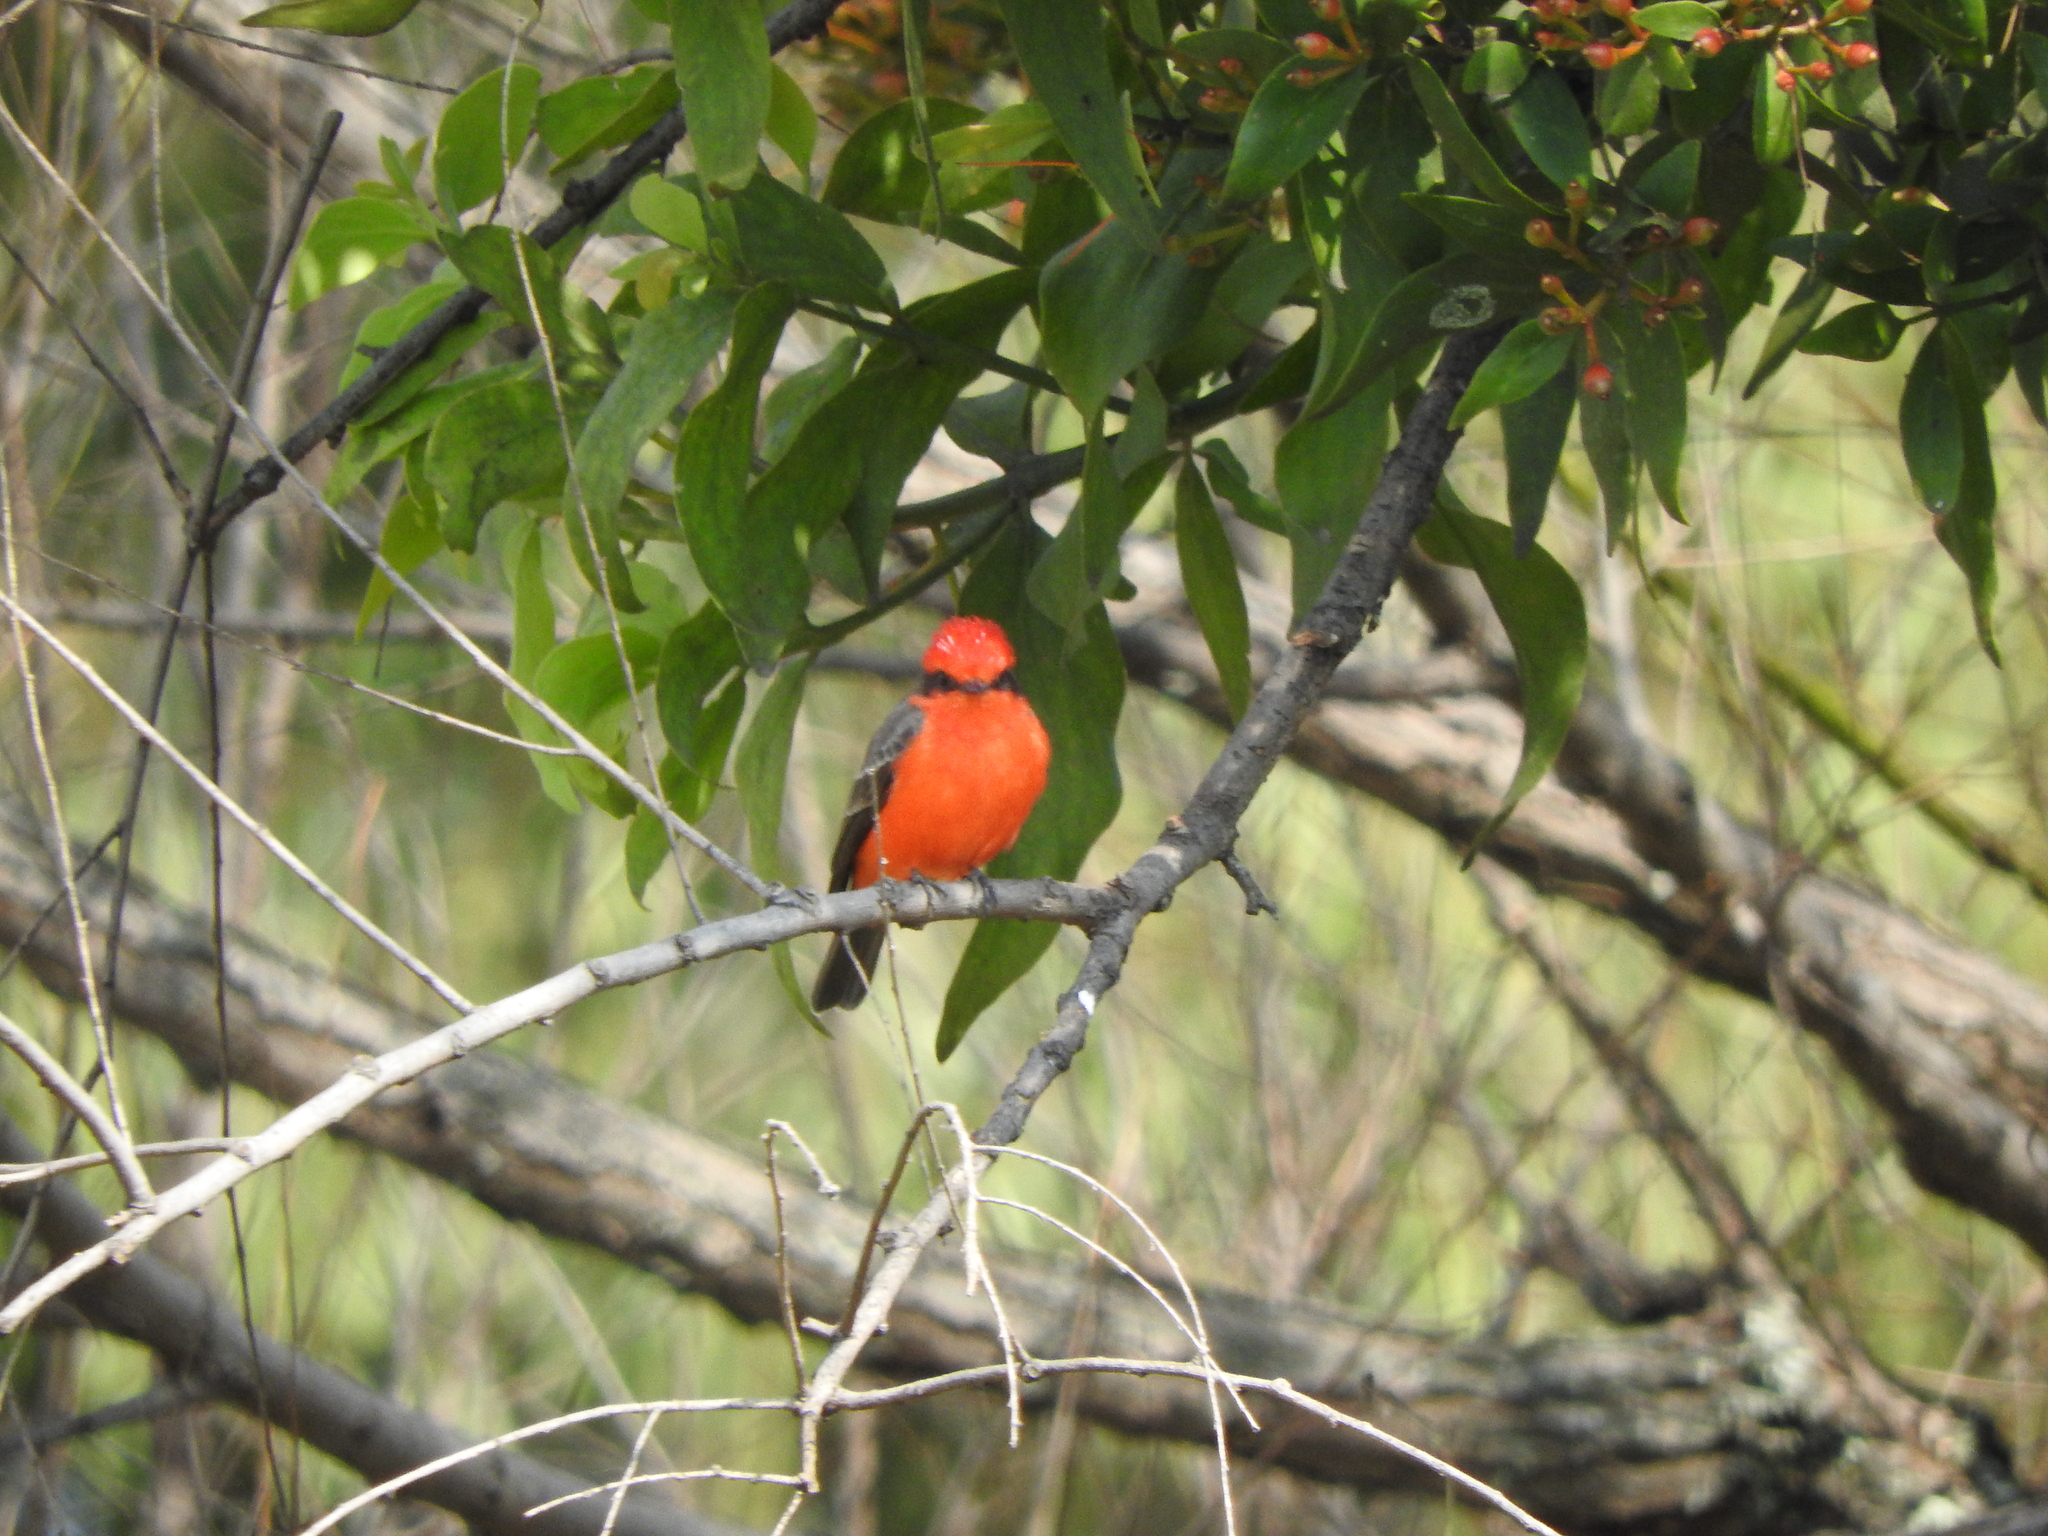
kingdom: Animalia
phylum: Chordata
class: Aves
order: Passeriformes
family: Tyrannidae
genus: Pyrocephalus
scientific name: Pyrocephalus rubinus
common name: Vermilion flycatcher
